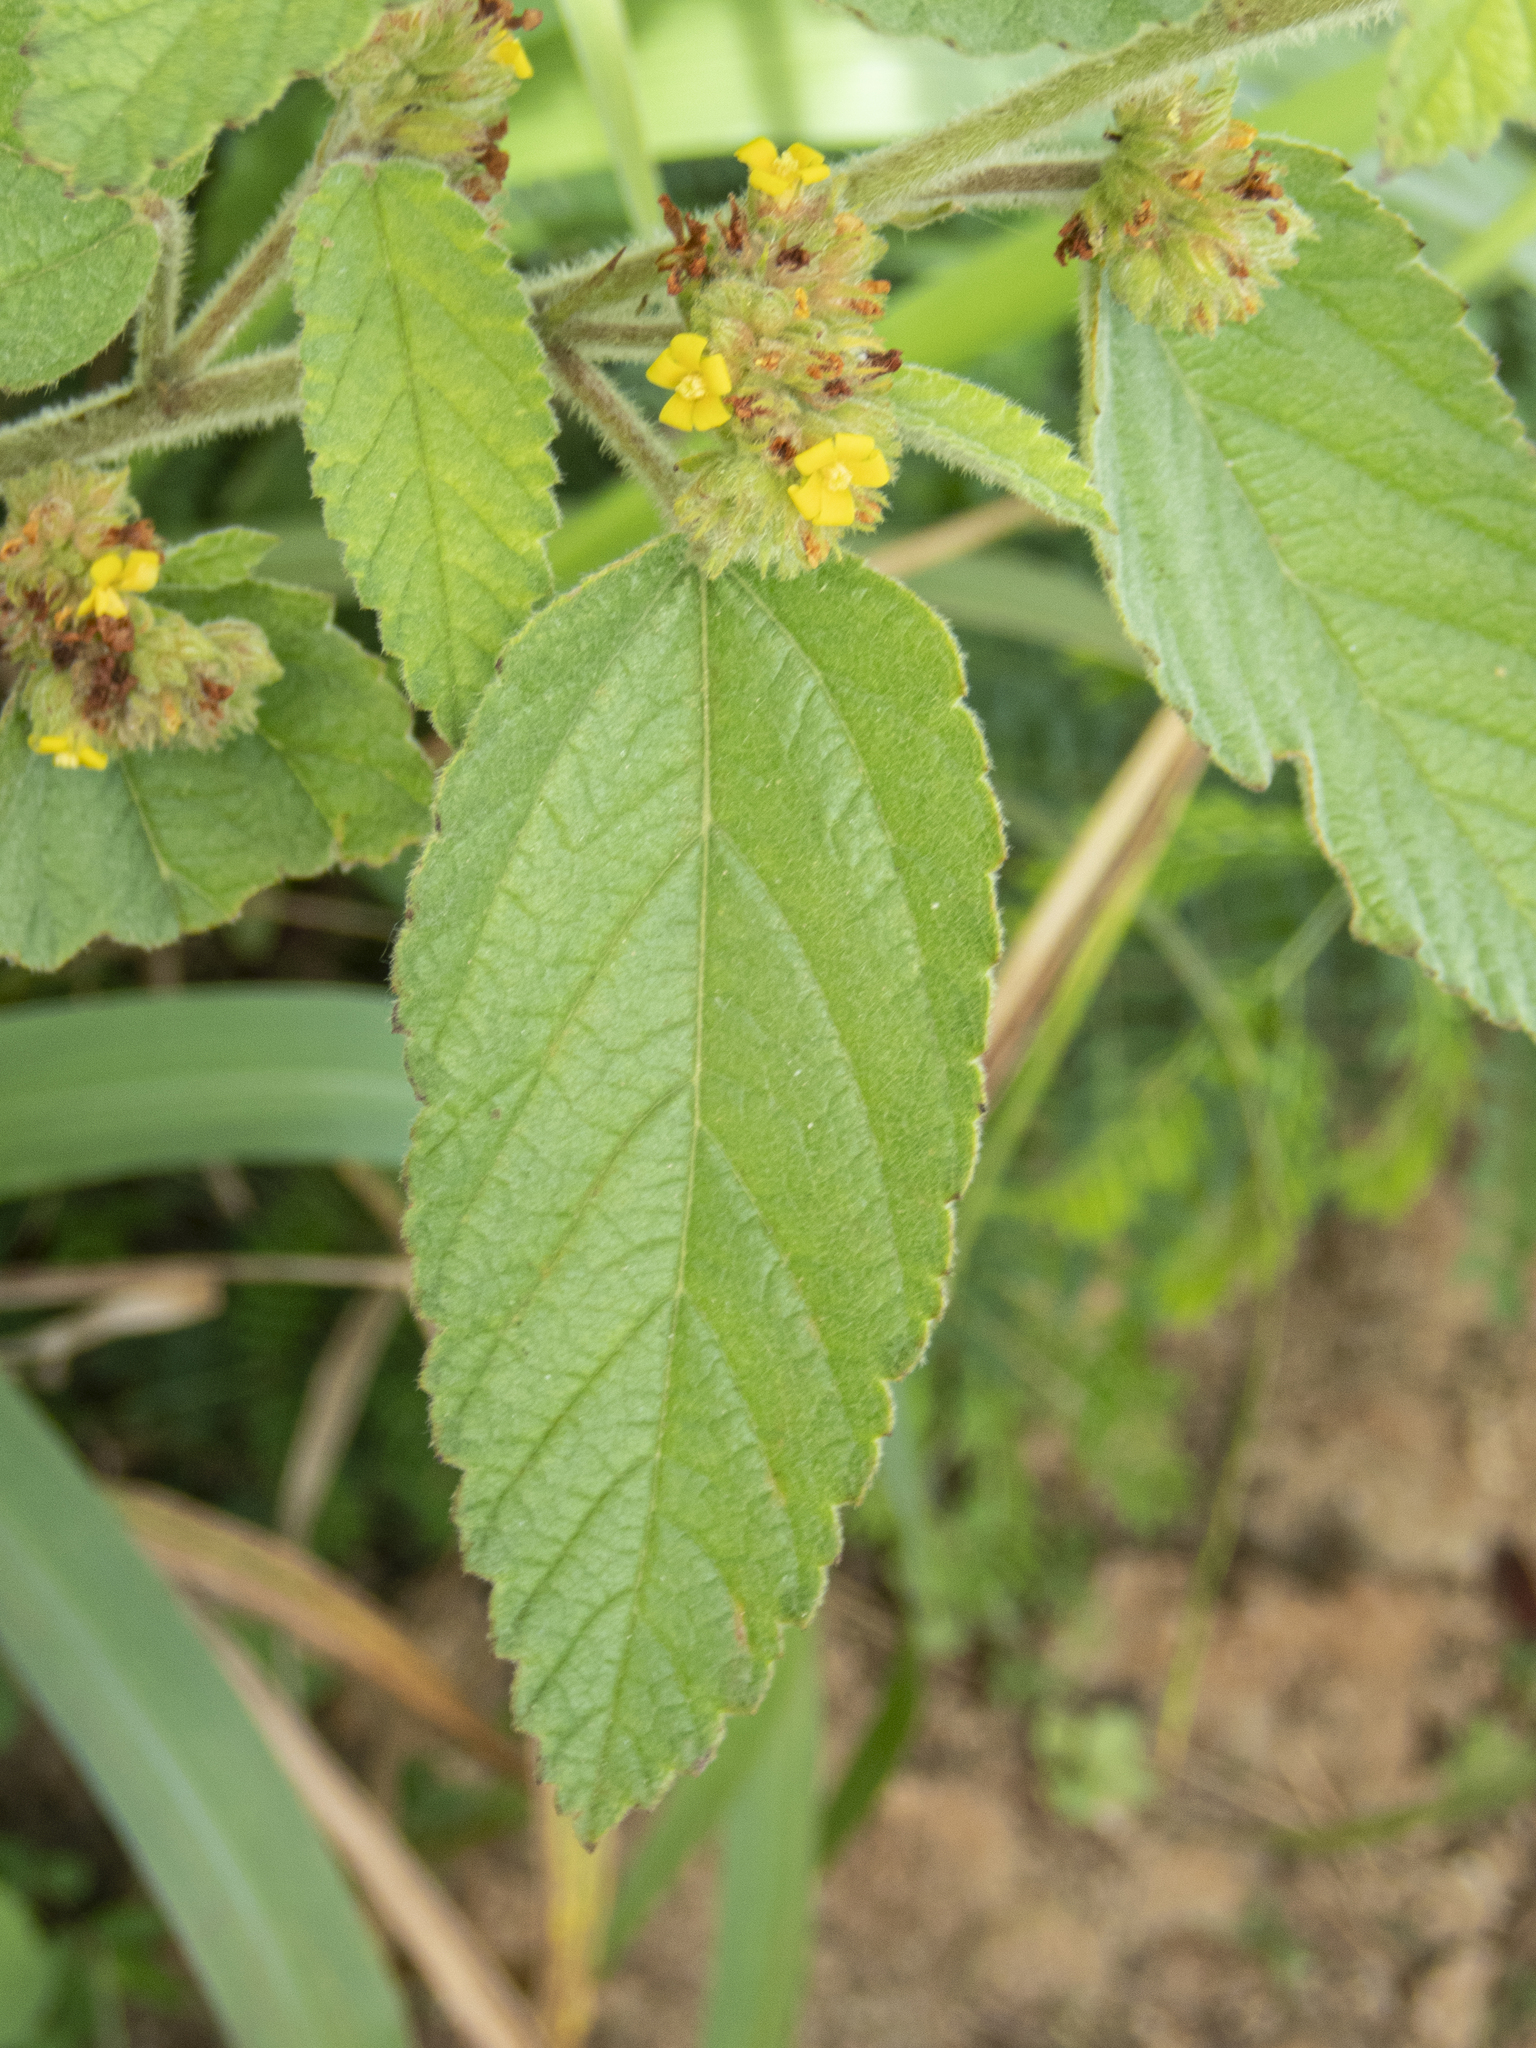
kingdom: Plantae
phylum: Tracheophyta
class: Magnoliopsida
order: Malvales
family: Malvaceae
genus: Waltheria
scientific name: Waltheria indica
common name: Leather-coat
